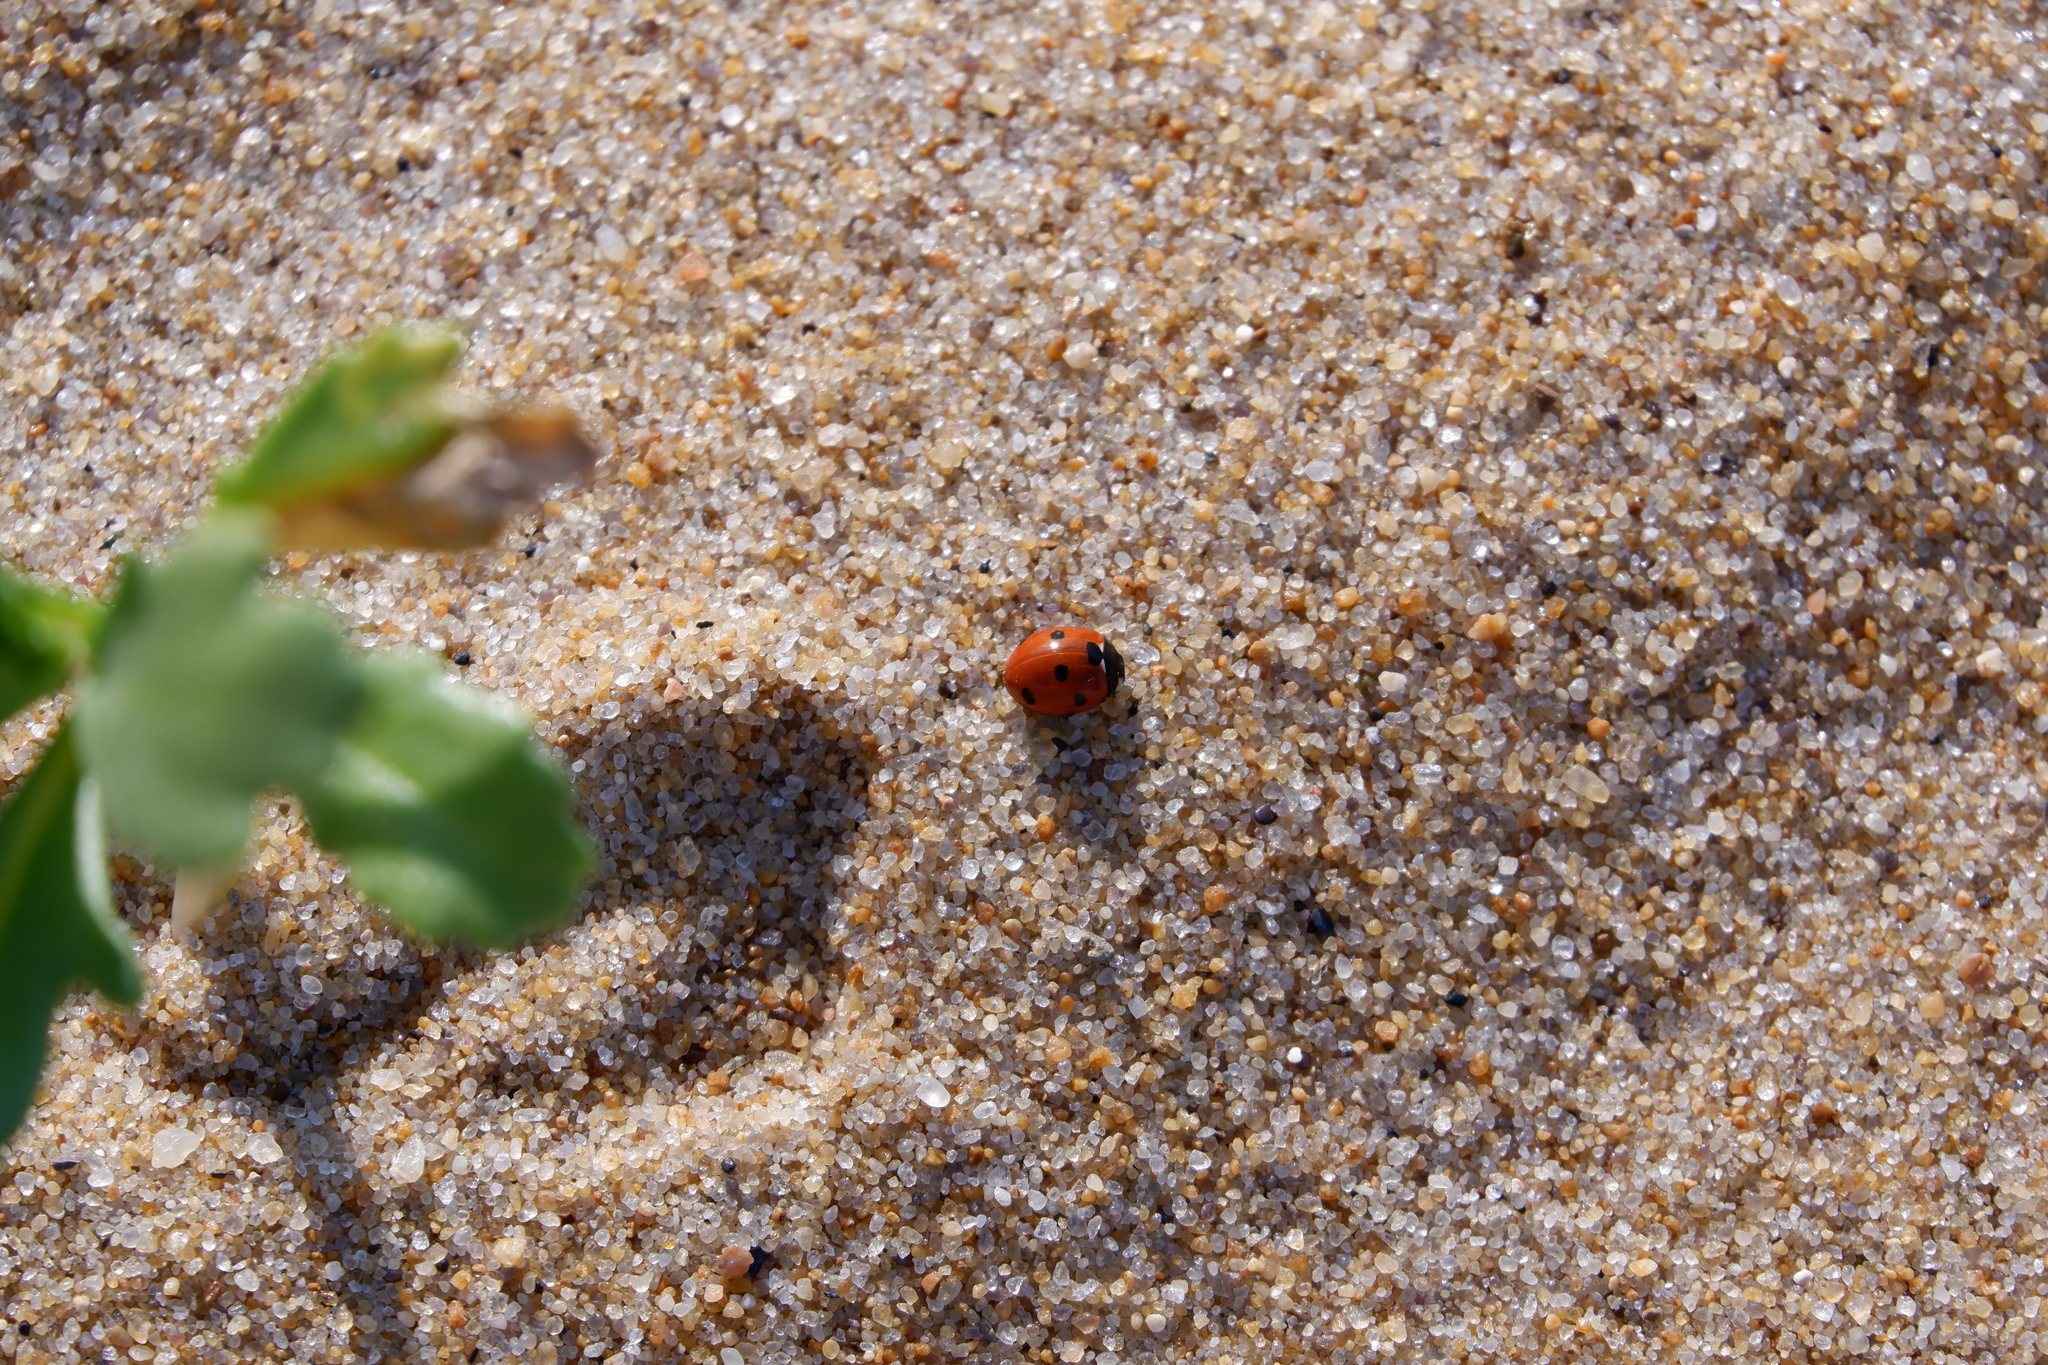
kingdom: Animalia
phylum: Arthropoda
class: Insecta
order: Coleoptera
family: Coccinellidae
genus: Coccinella
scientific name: Coccinella septempunctata
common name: Sevenspotted lady beetle
